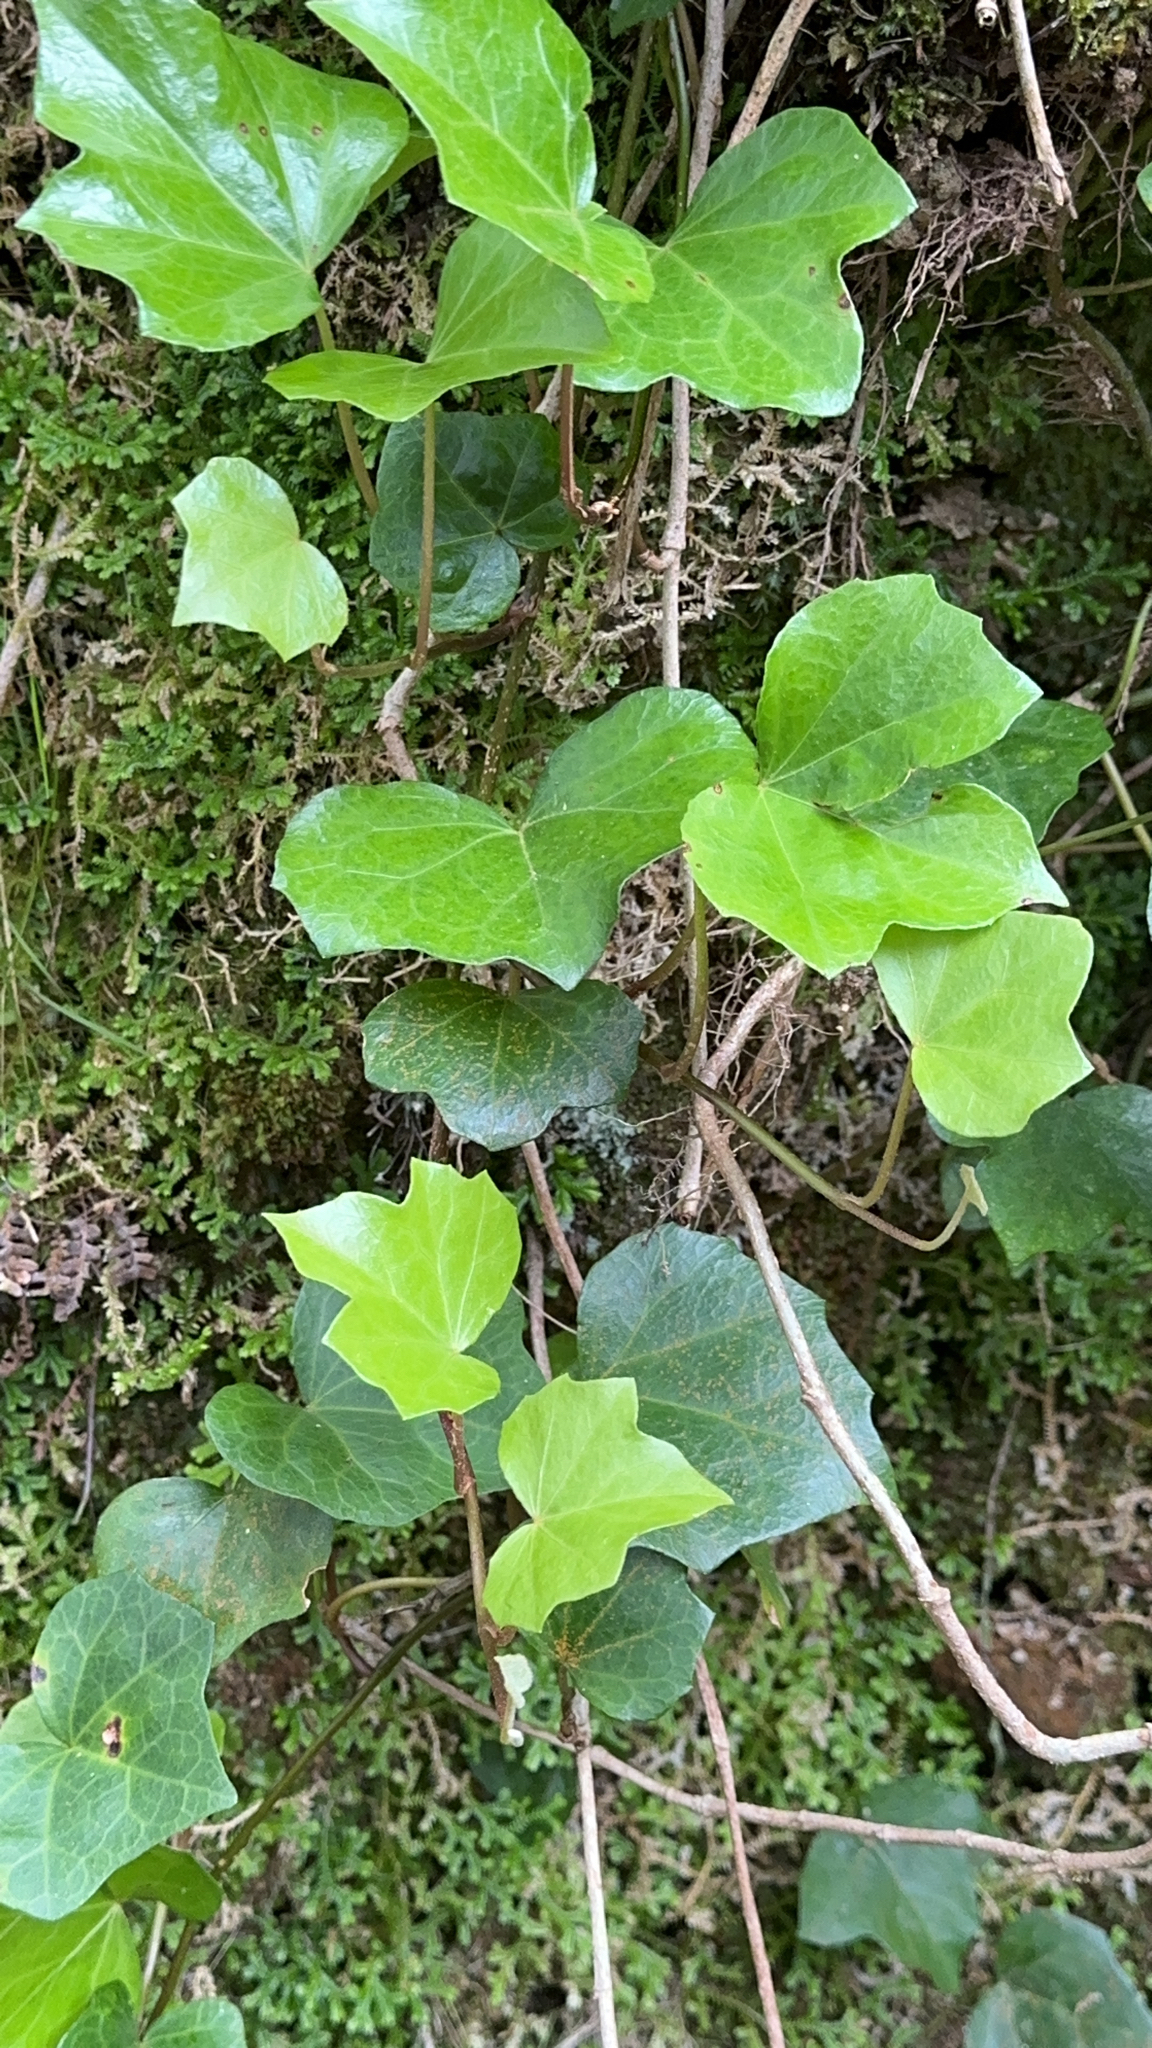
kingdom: Plantae
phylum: Tracheophyta
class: Magnoliopsida
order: Apiales
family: Araliaceae
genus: Hedera
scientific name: Hedera azorica
